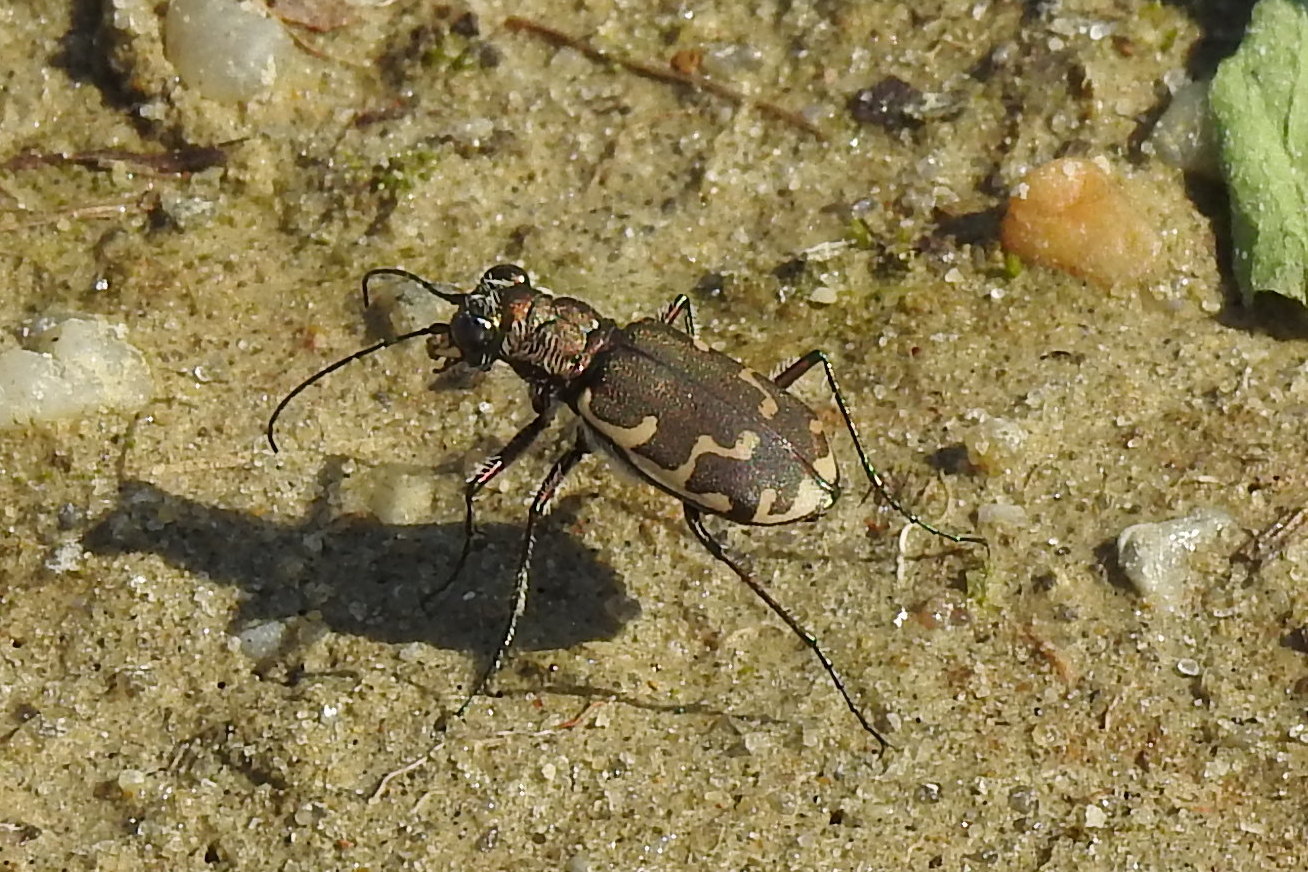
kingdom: Animalia
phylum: Arthropoda
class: Insecta
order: Coleoptera
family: Carabidae
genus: Cicindela
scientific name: Cicindela repanda
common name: Bronzed tiger beetle
